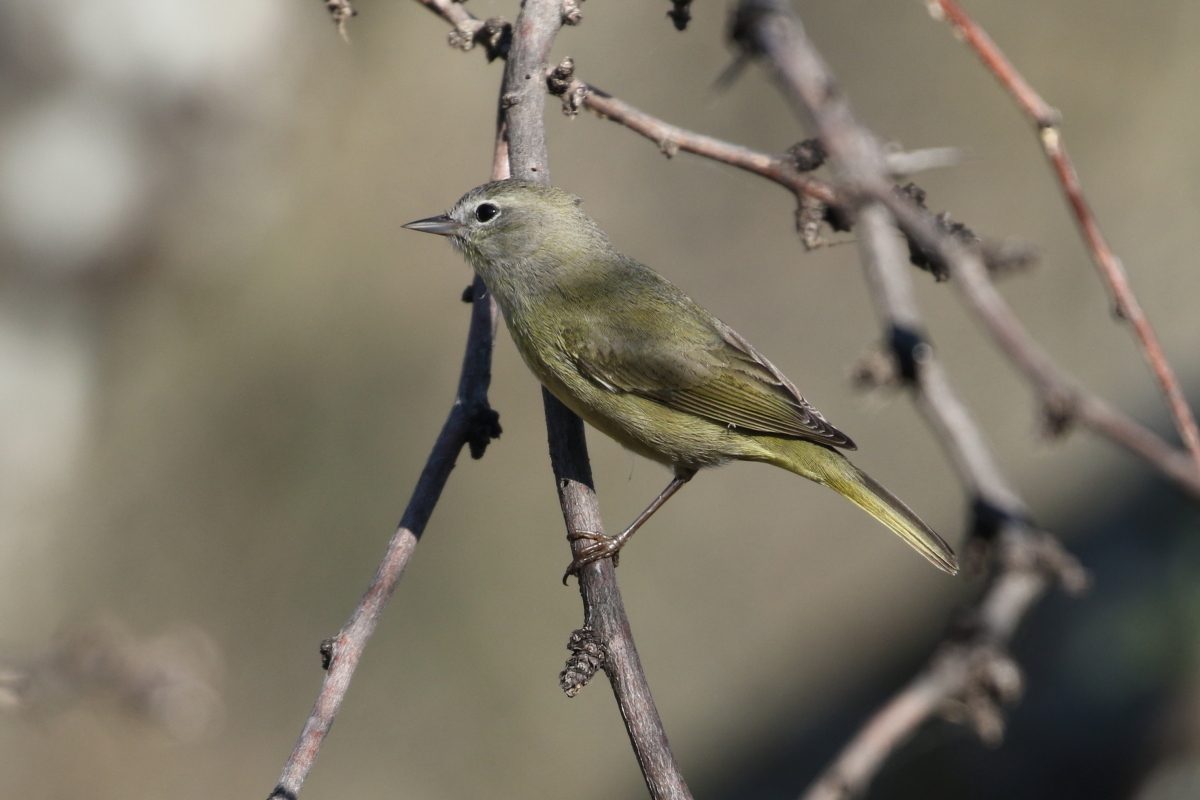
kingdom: Animalia
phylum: Chordata
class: Aves
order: Passeriformes
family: Parulidae
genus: Leiothlypis
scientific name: Leiothlypis celata
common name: Orange-crowned warbler
